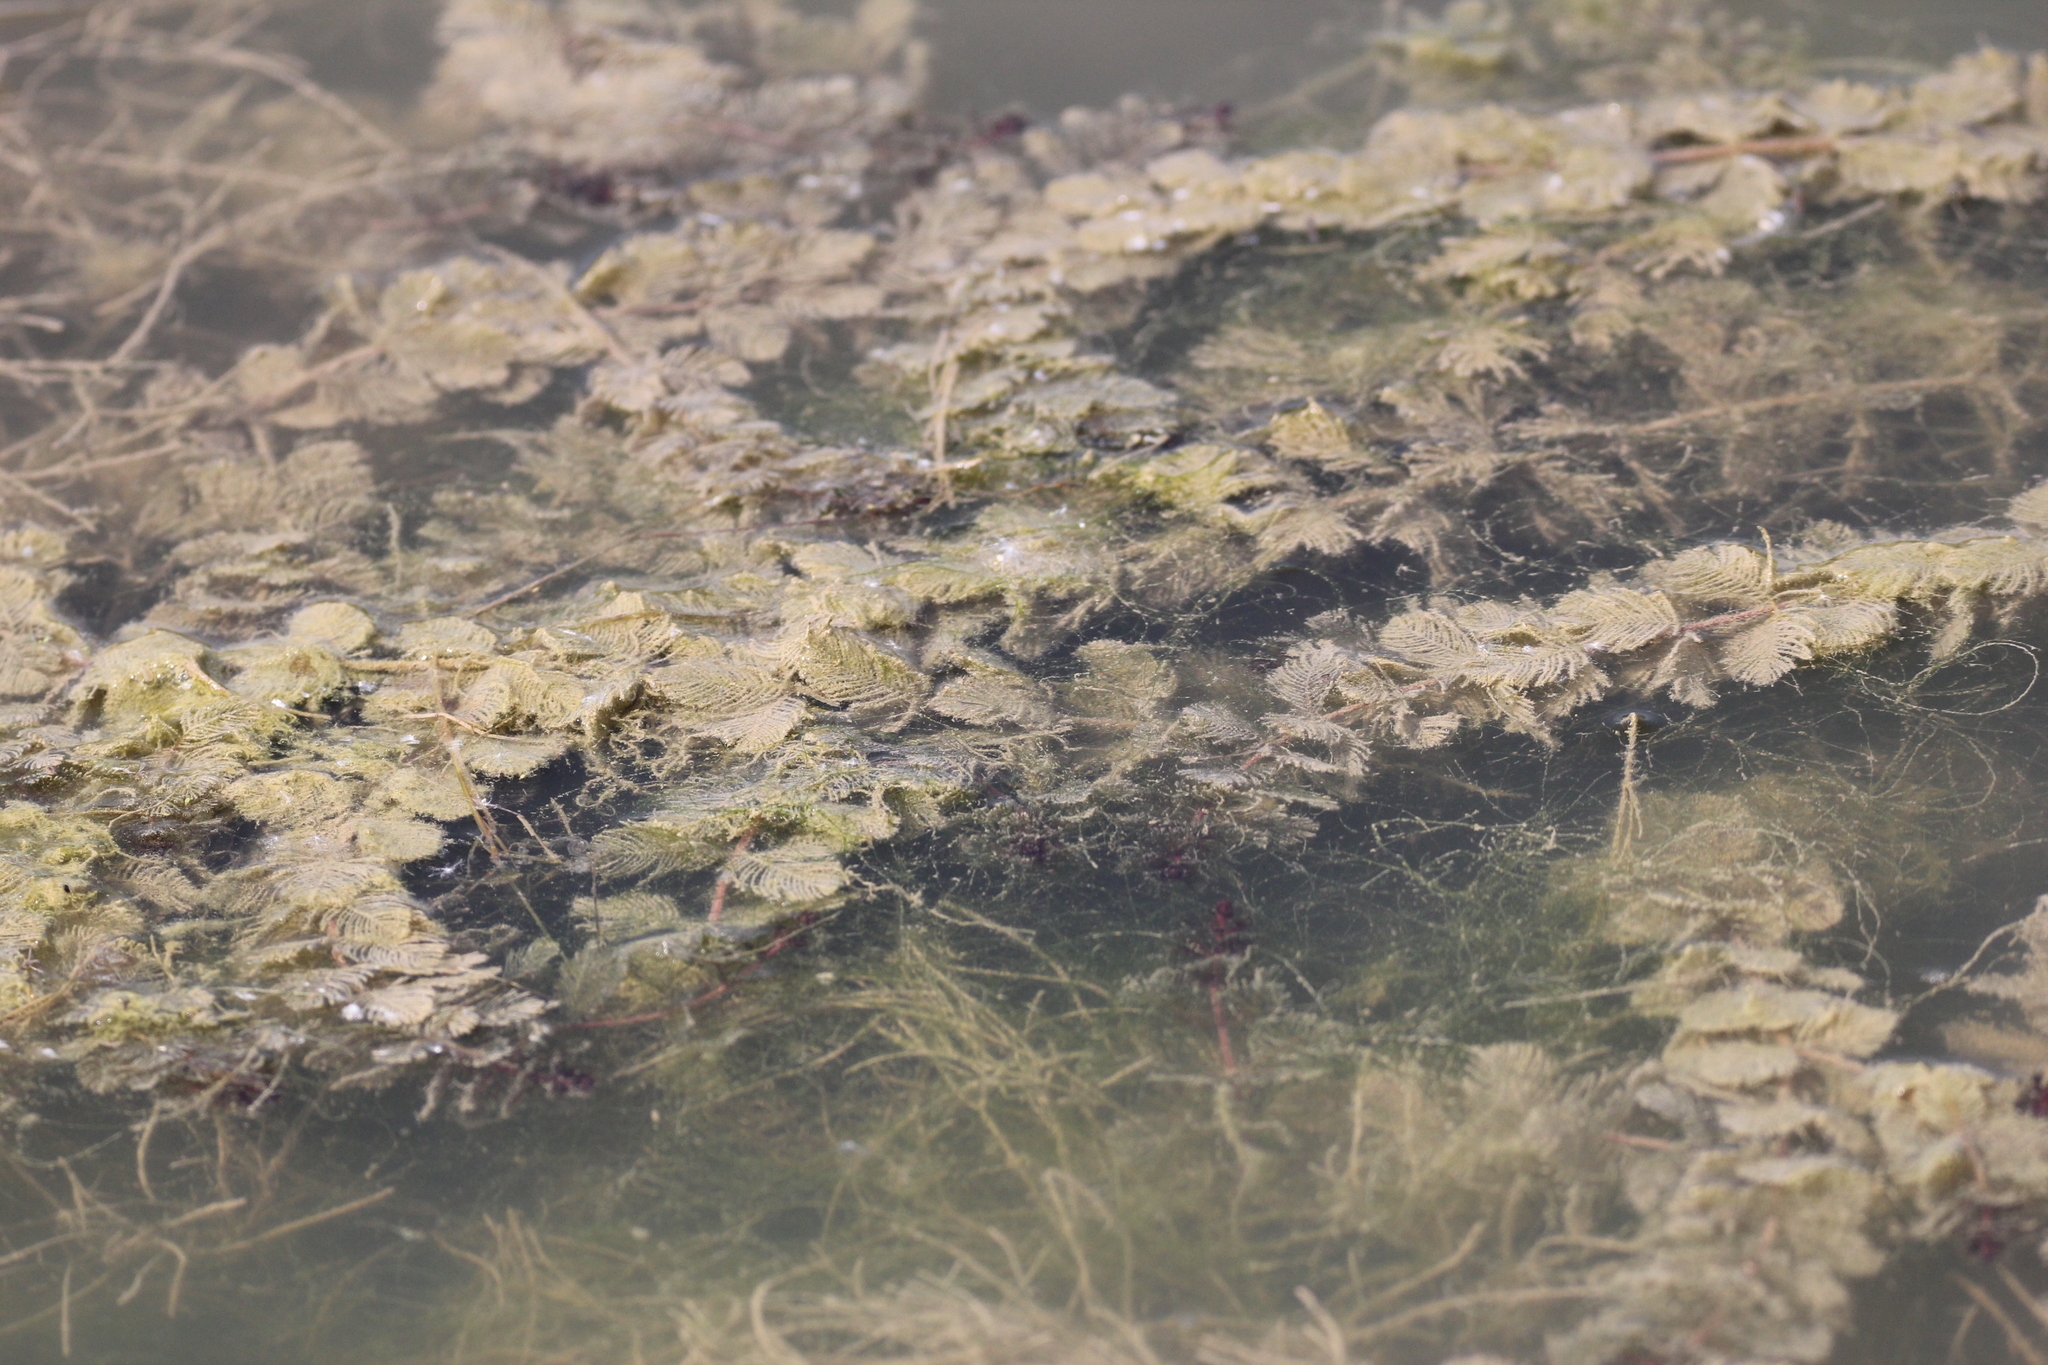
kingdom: Plantae
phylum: Tracheophyta
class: Magnoliopsida
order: Saxifragales
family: Haloragaceae
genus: Myriophyllum
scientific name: Myriophyllum spicatum
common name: Spiked water-milfoil
